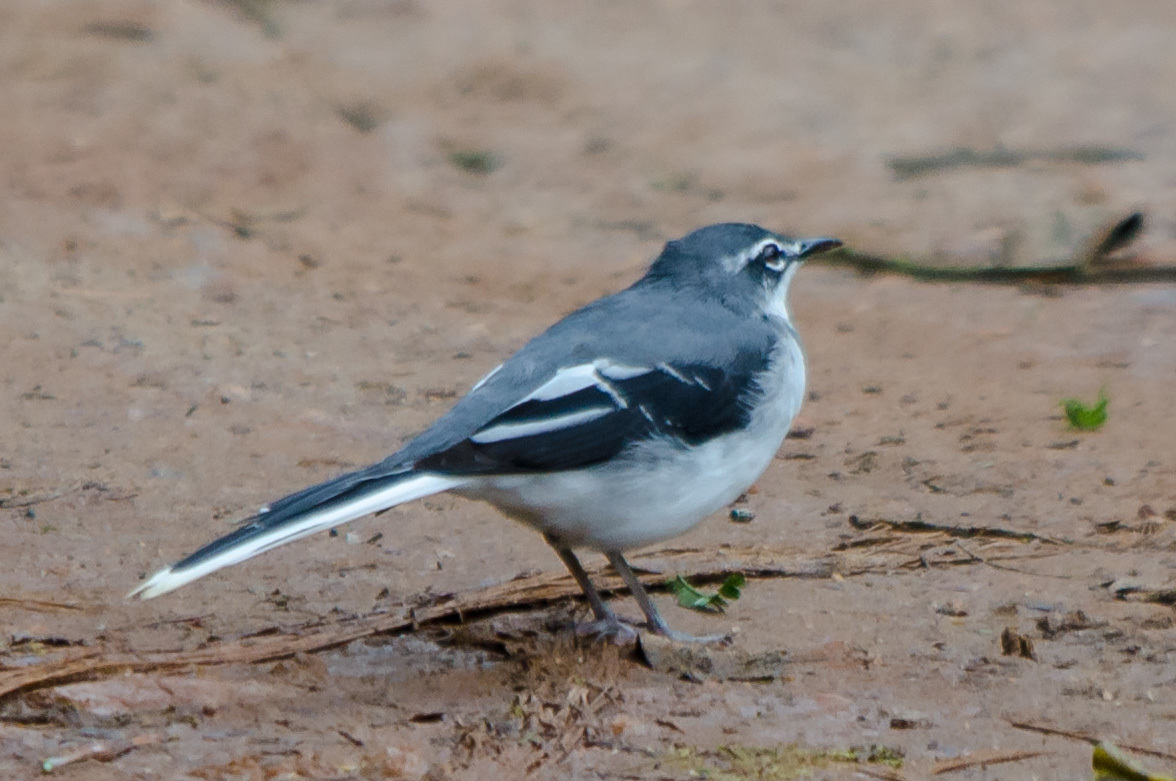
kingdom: Animalia
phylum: Chordata
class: Aves
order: Passeriformes
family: Motacillidae
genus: Motacilla
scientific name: Motacilla clara
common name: Mountain wagtail
